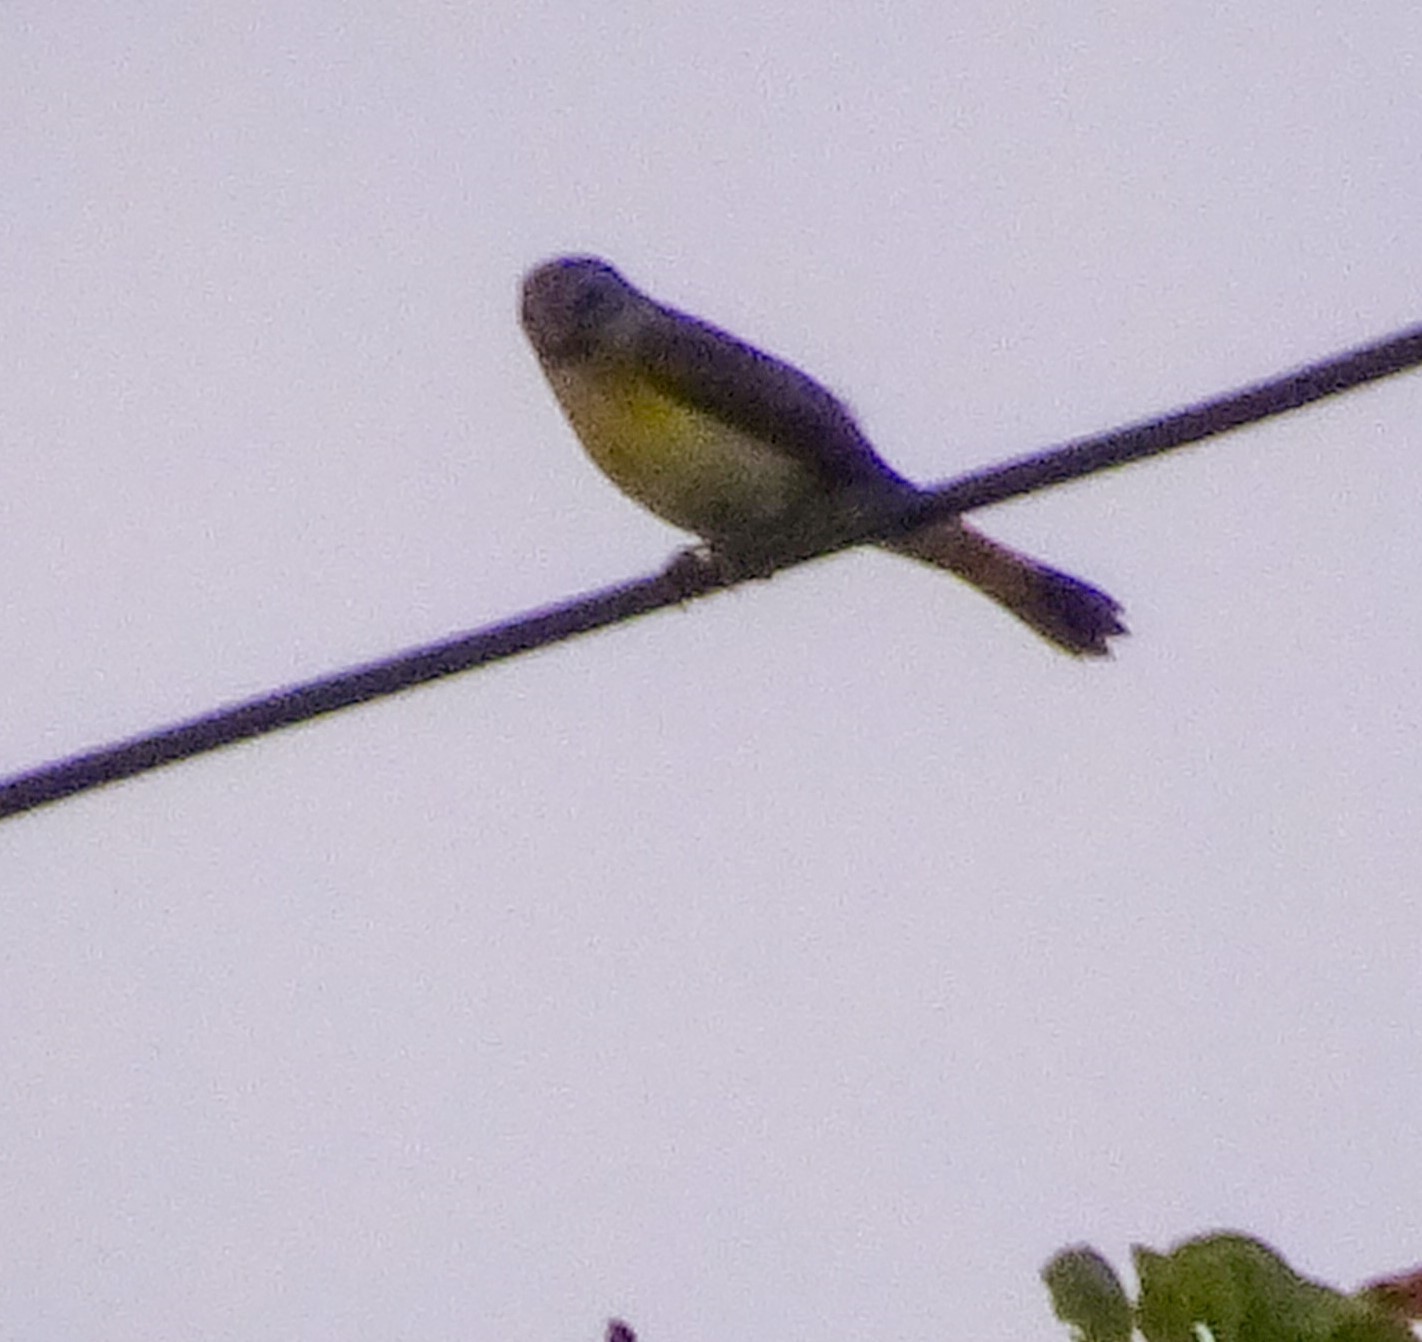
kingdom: Animalia
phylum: Chordata
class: Aves
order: Passeriformes
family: Parulidae
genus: Setophaga
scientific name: Setophaga ruticilla
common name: American redstart
